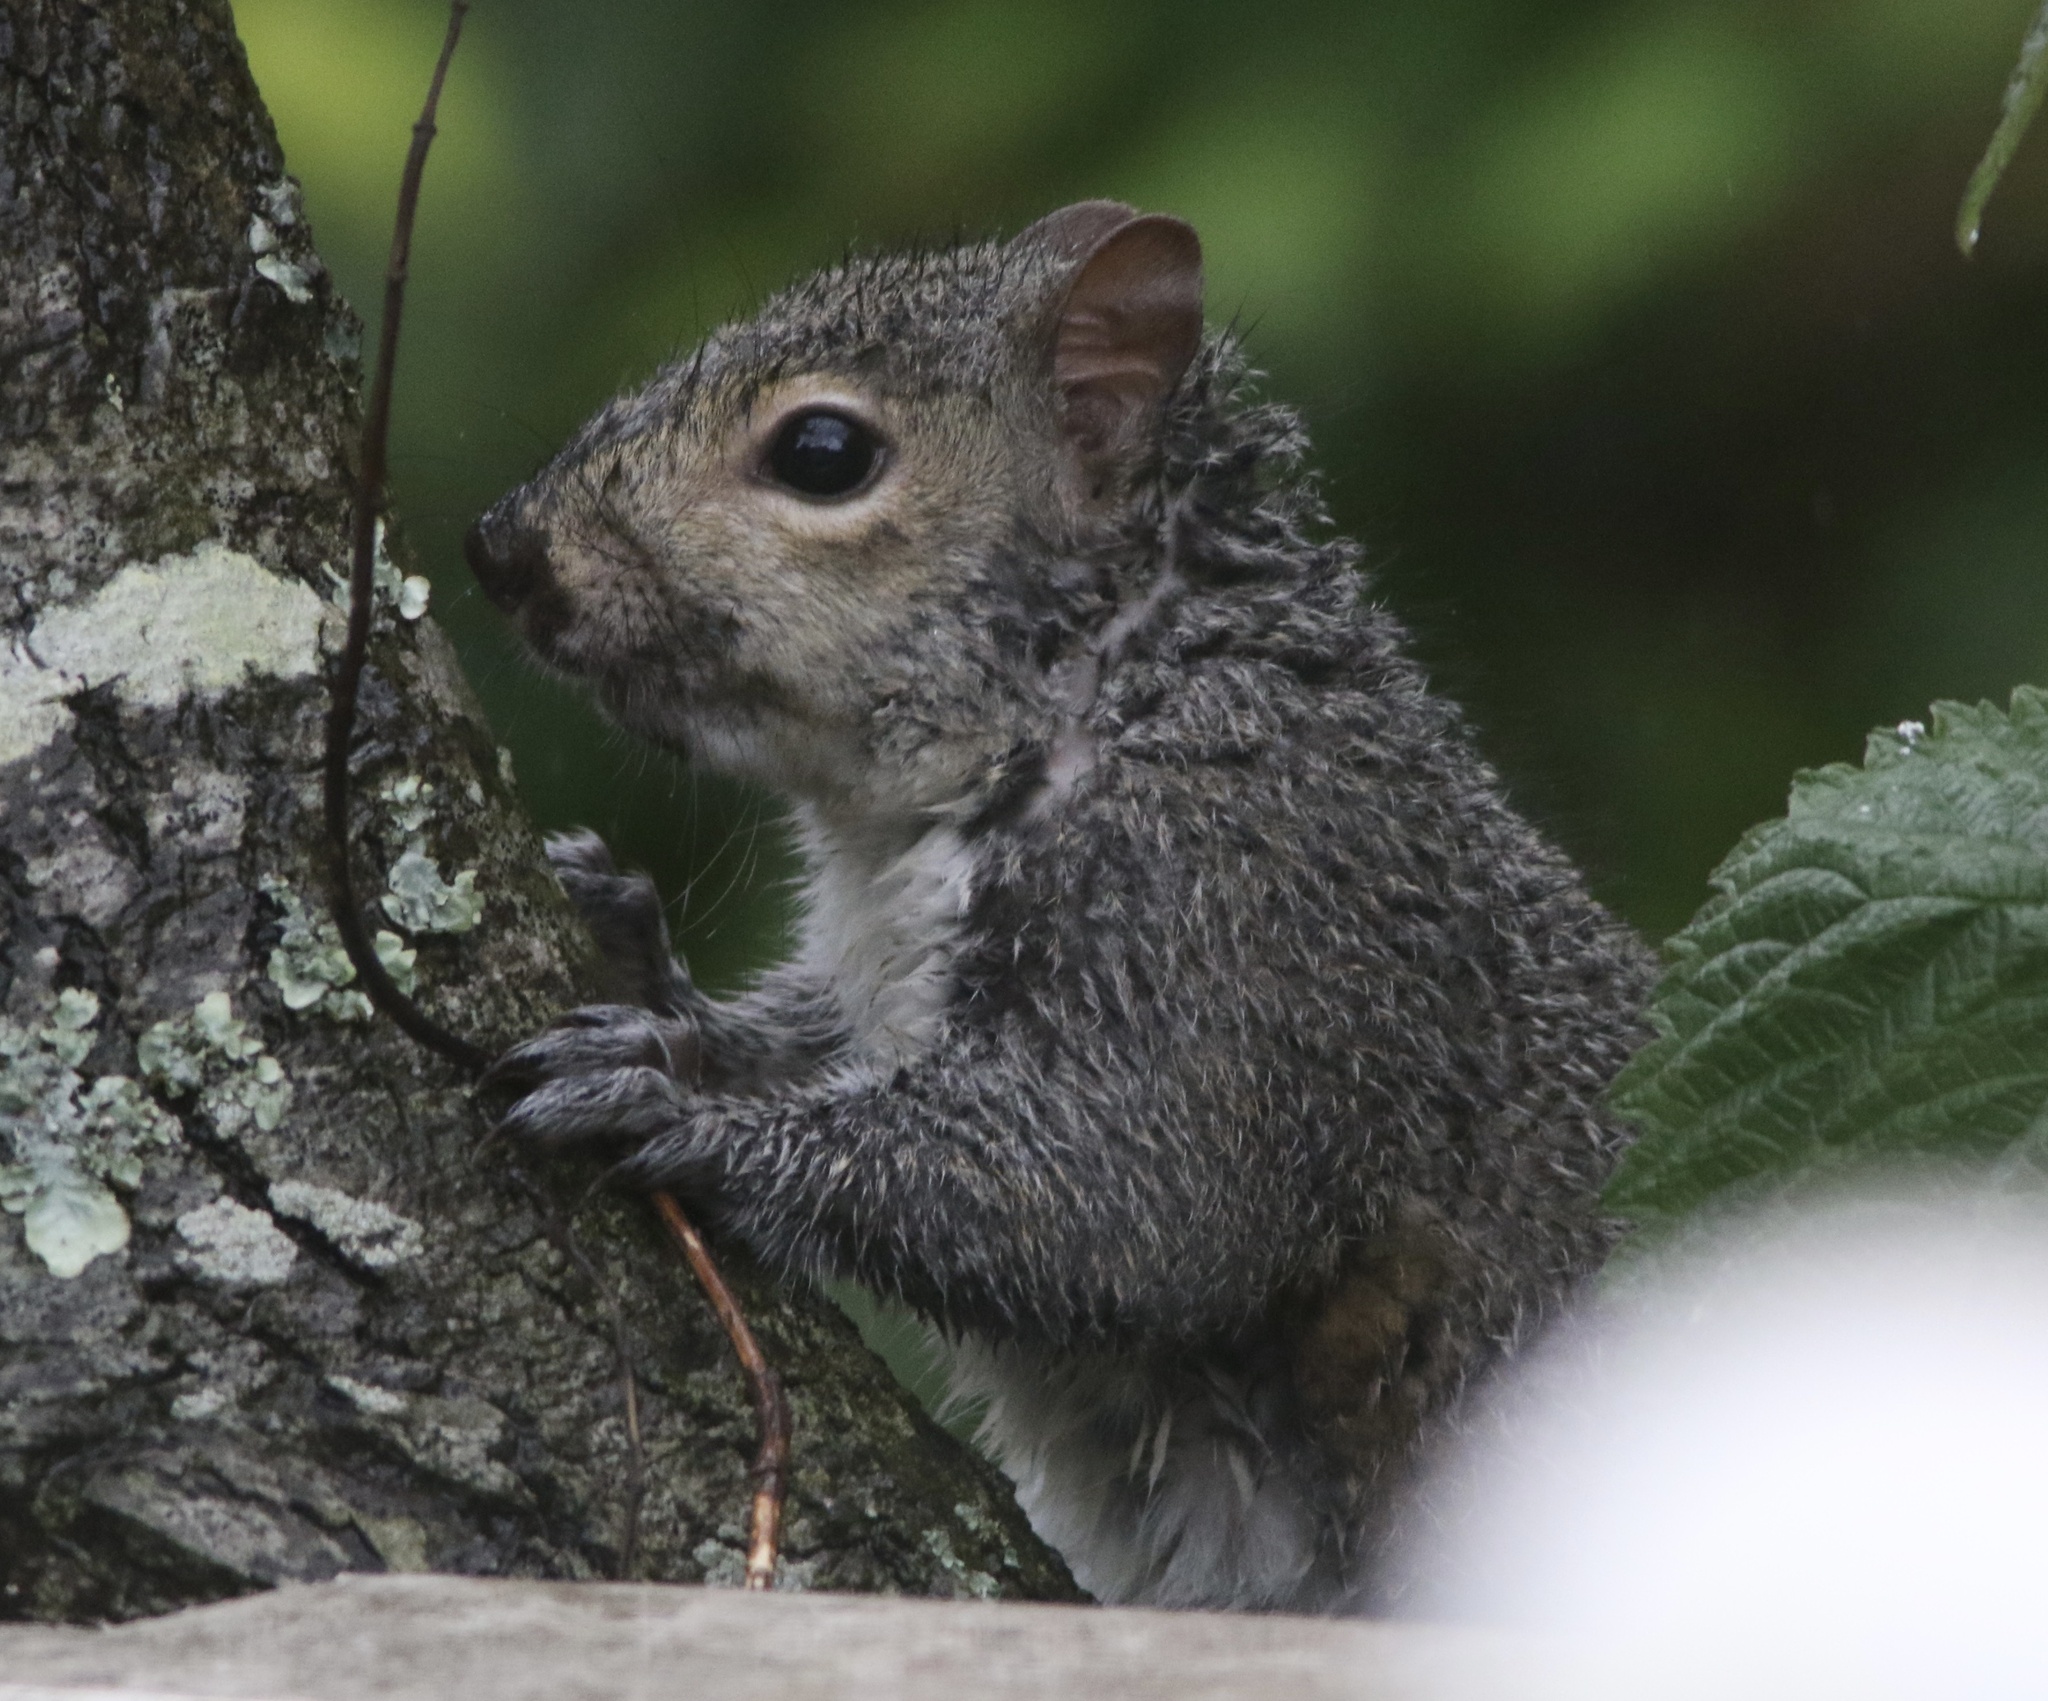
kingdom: Animalia
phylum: Chordata
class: Mammalia
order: Rodentia
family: Sciuridae
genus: Sciurus
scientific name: Sciurus carolinensis
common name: Eastern gray squirrel
